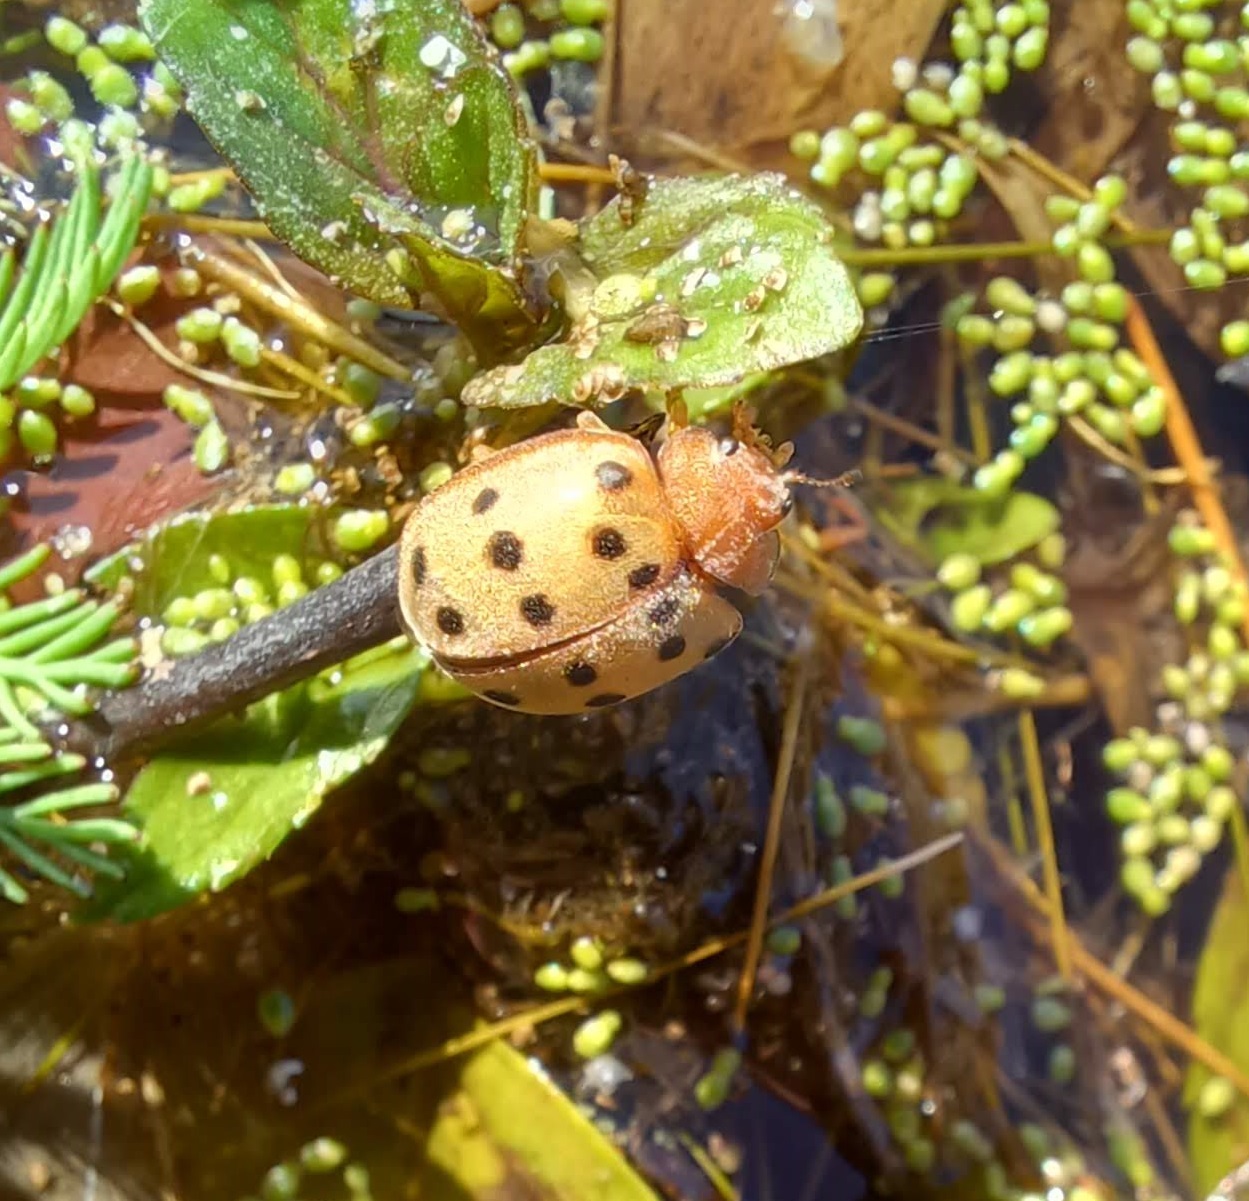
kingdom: Animalia
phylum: Arthropoda
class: Insecta
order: Coleoptera
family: Coccinellidae
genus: Epilachna
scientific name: Epilachna varivestis
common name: Ladybird beetle
